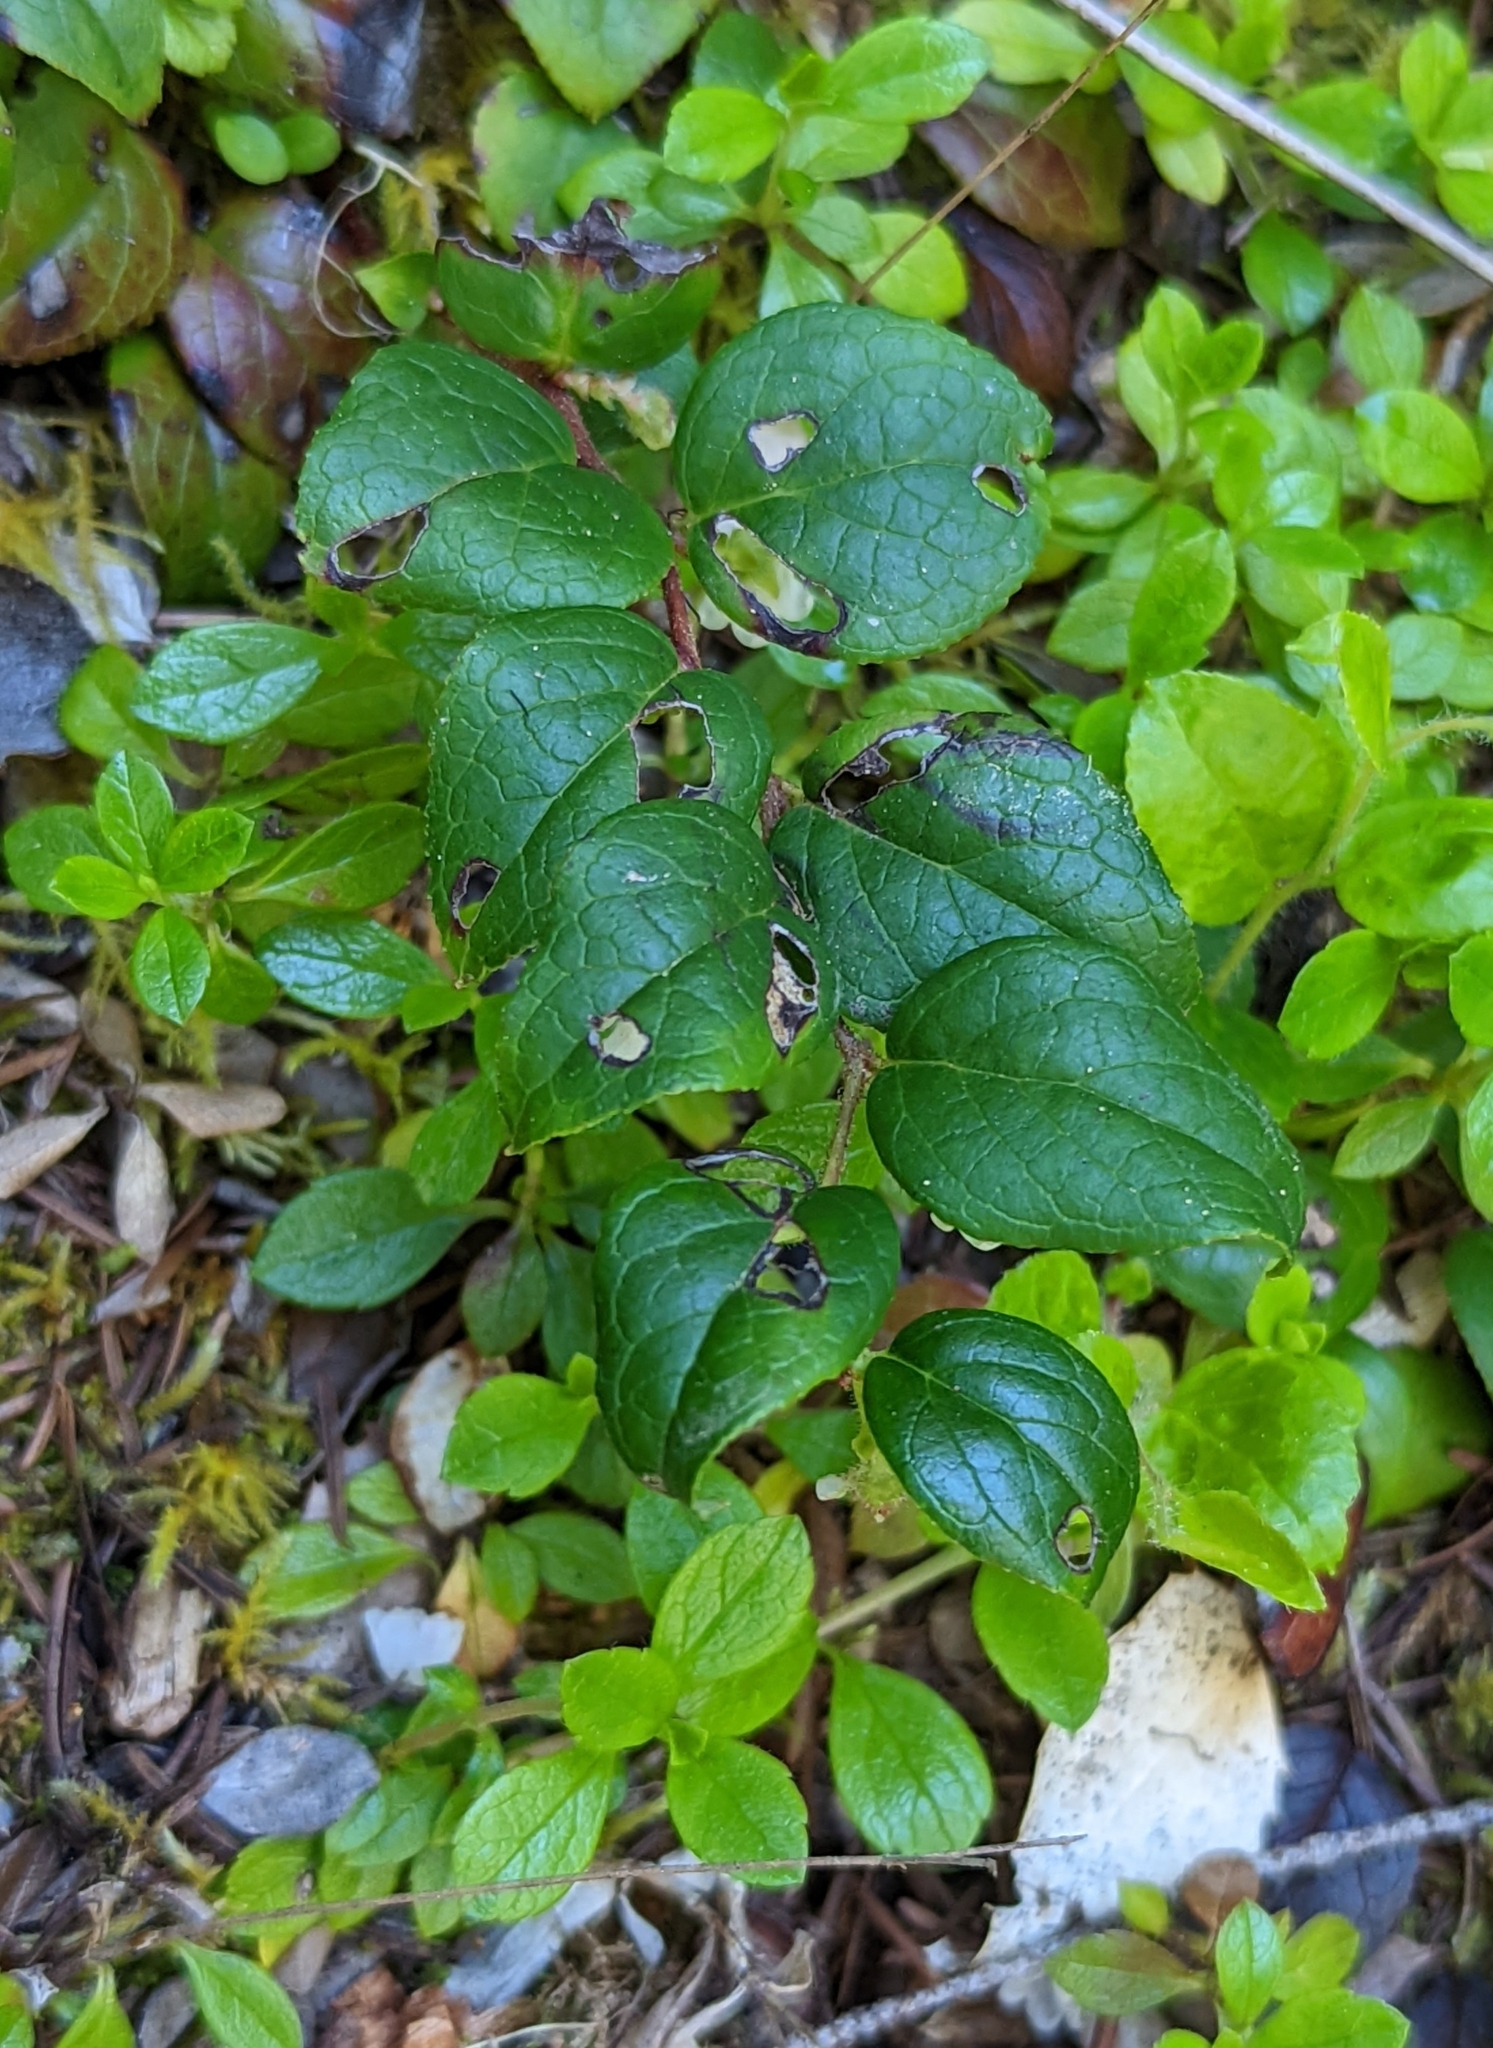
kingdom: Plantae
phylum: Tracheophyta
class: Magnoliopsida
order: Ericales
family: Ericaceae
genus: Gaultheria
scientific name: Gaultheria ovatifolia
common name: Oregon wintergreen
